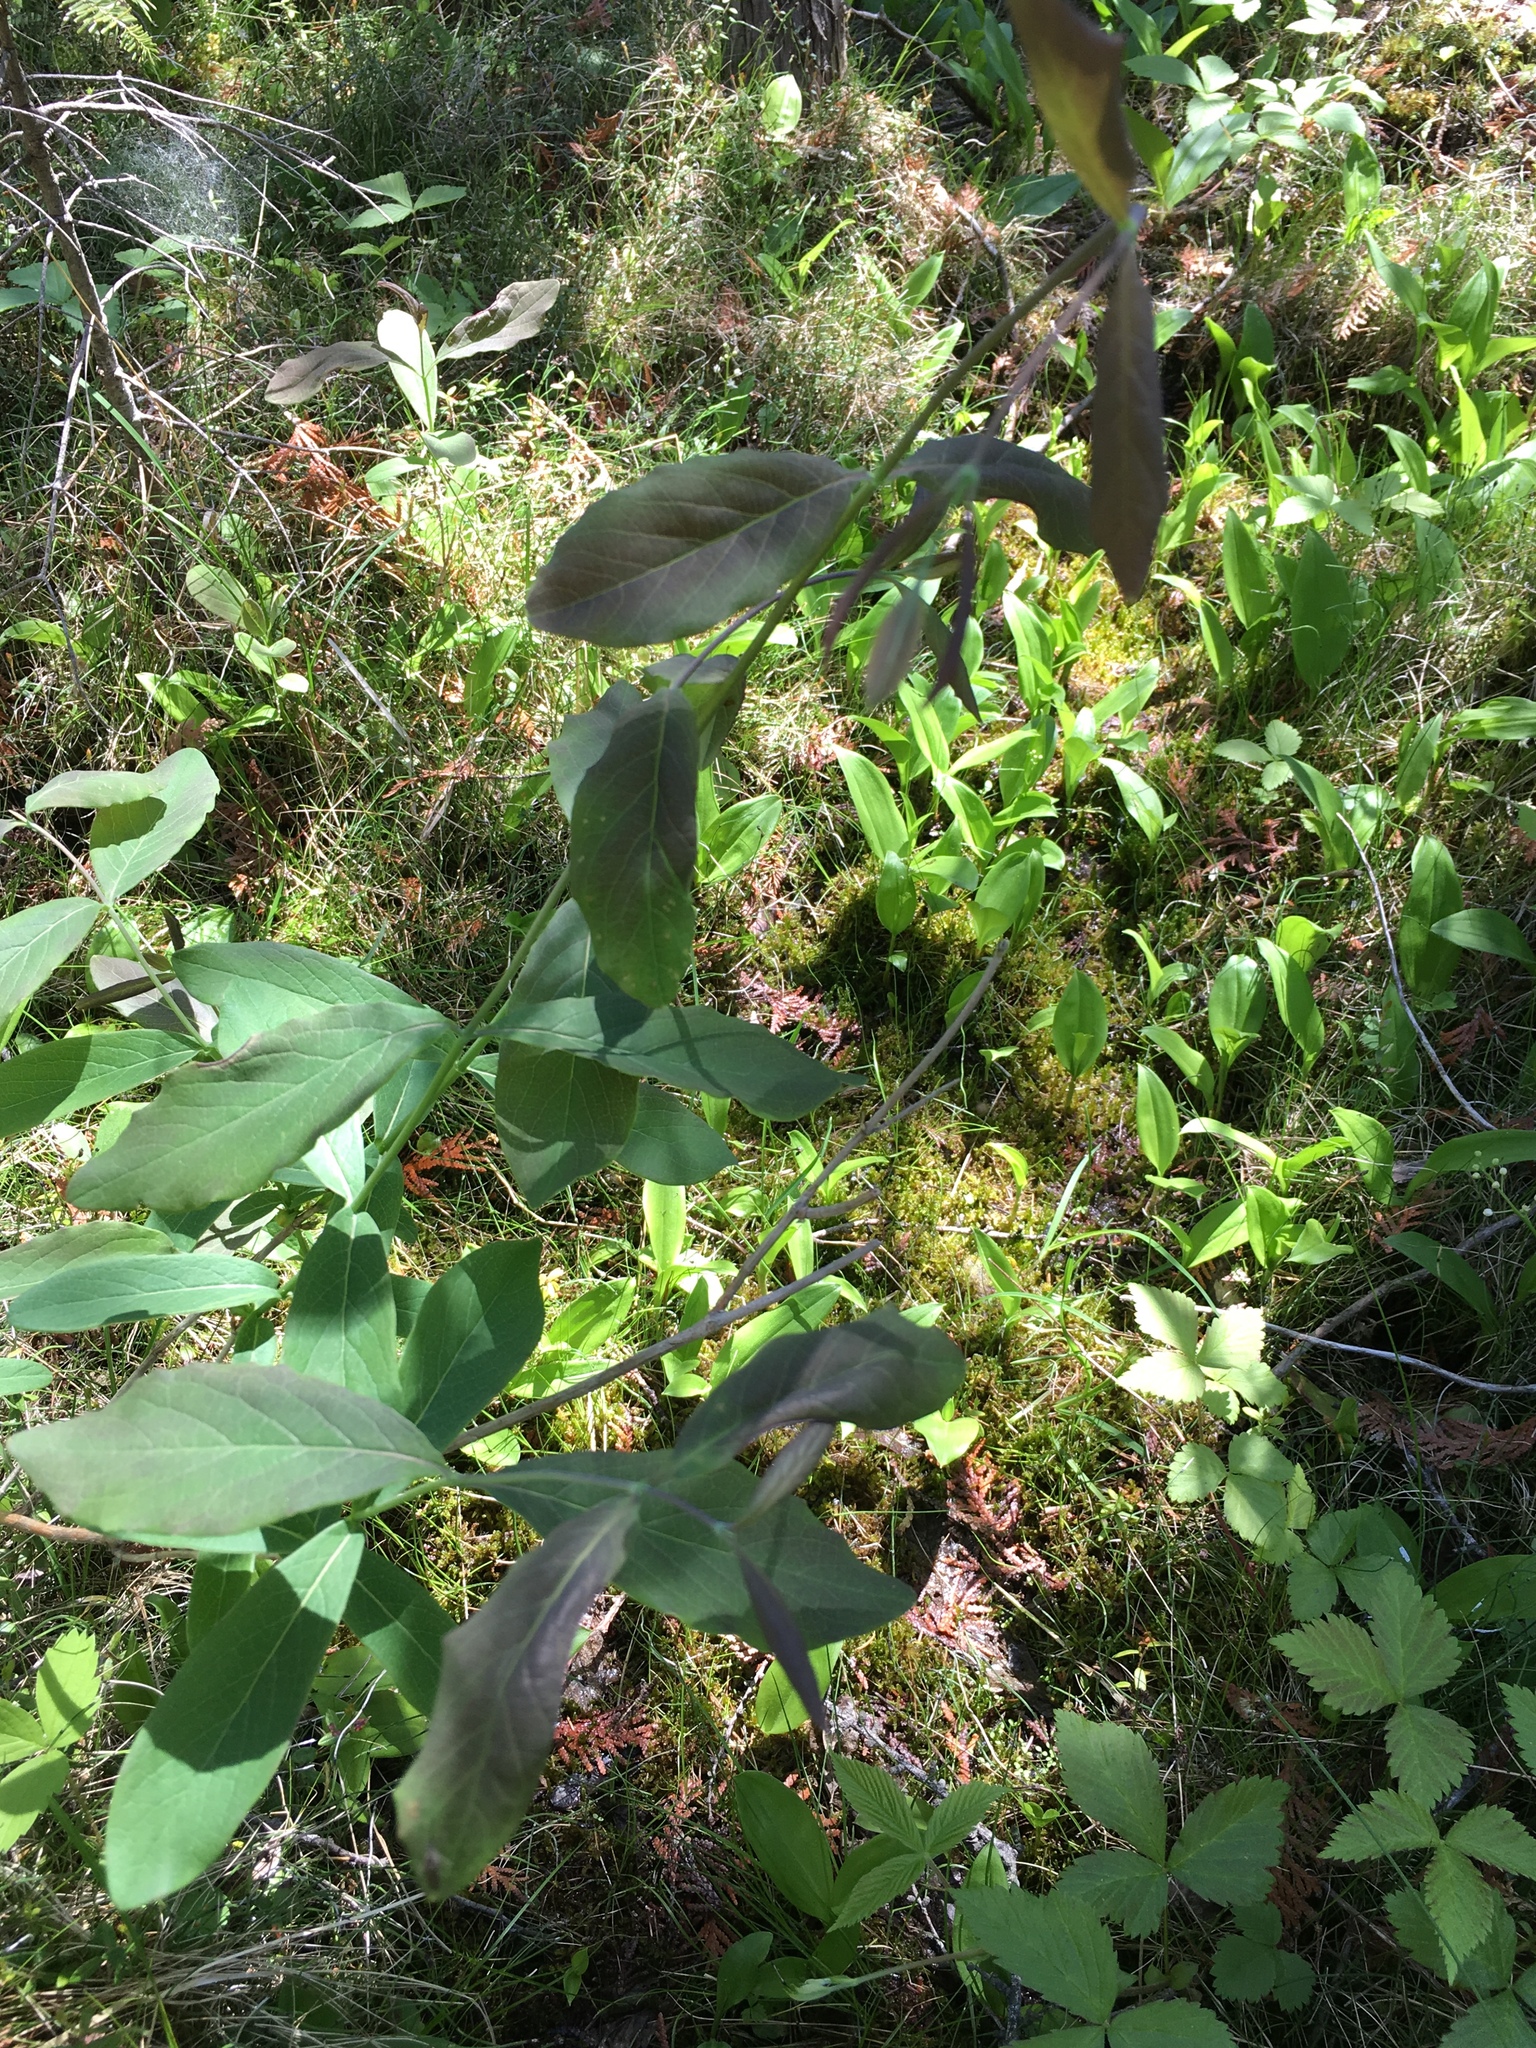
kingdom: Plantae
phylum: Tracheophyta
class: Magnoliopsida
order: Dipsacales
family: Caprifoliaceae
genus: Lonicera
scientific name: Lonicera dioica
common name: Limber honeysuckle
